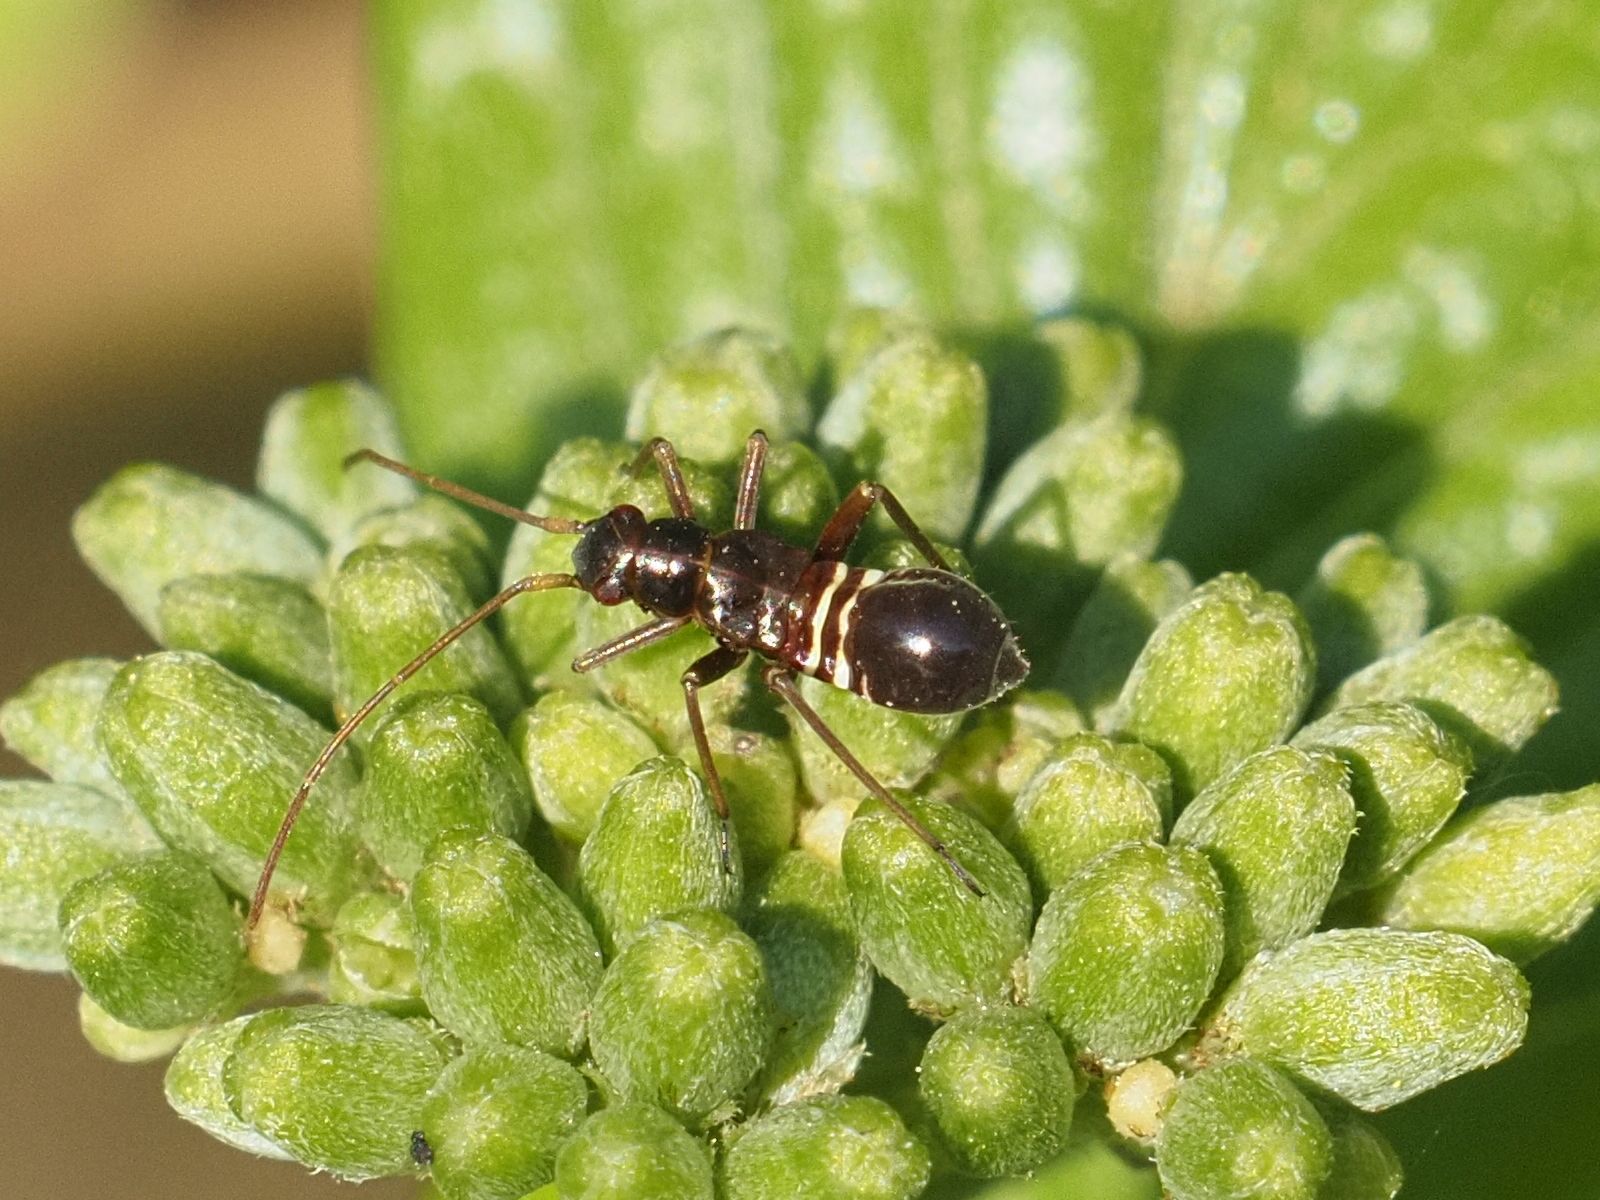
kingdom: Animalia
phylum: Arthropoda
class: Insecta
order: Hemiptera
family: Miridae
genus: Miris
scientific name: Miris striatus
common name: Fine streaked bugkin
